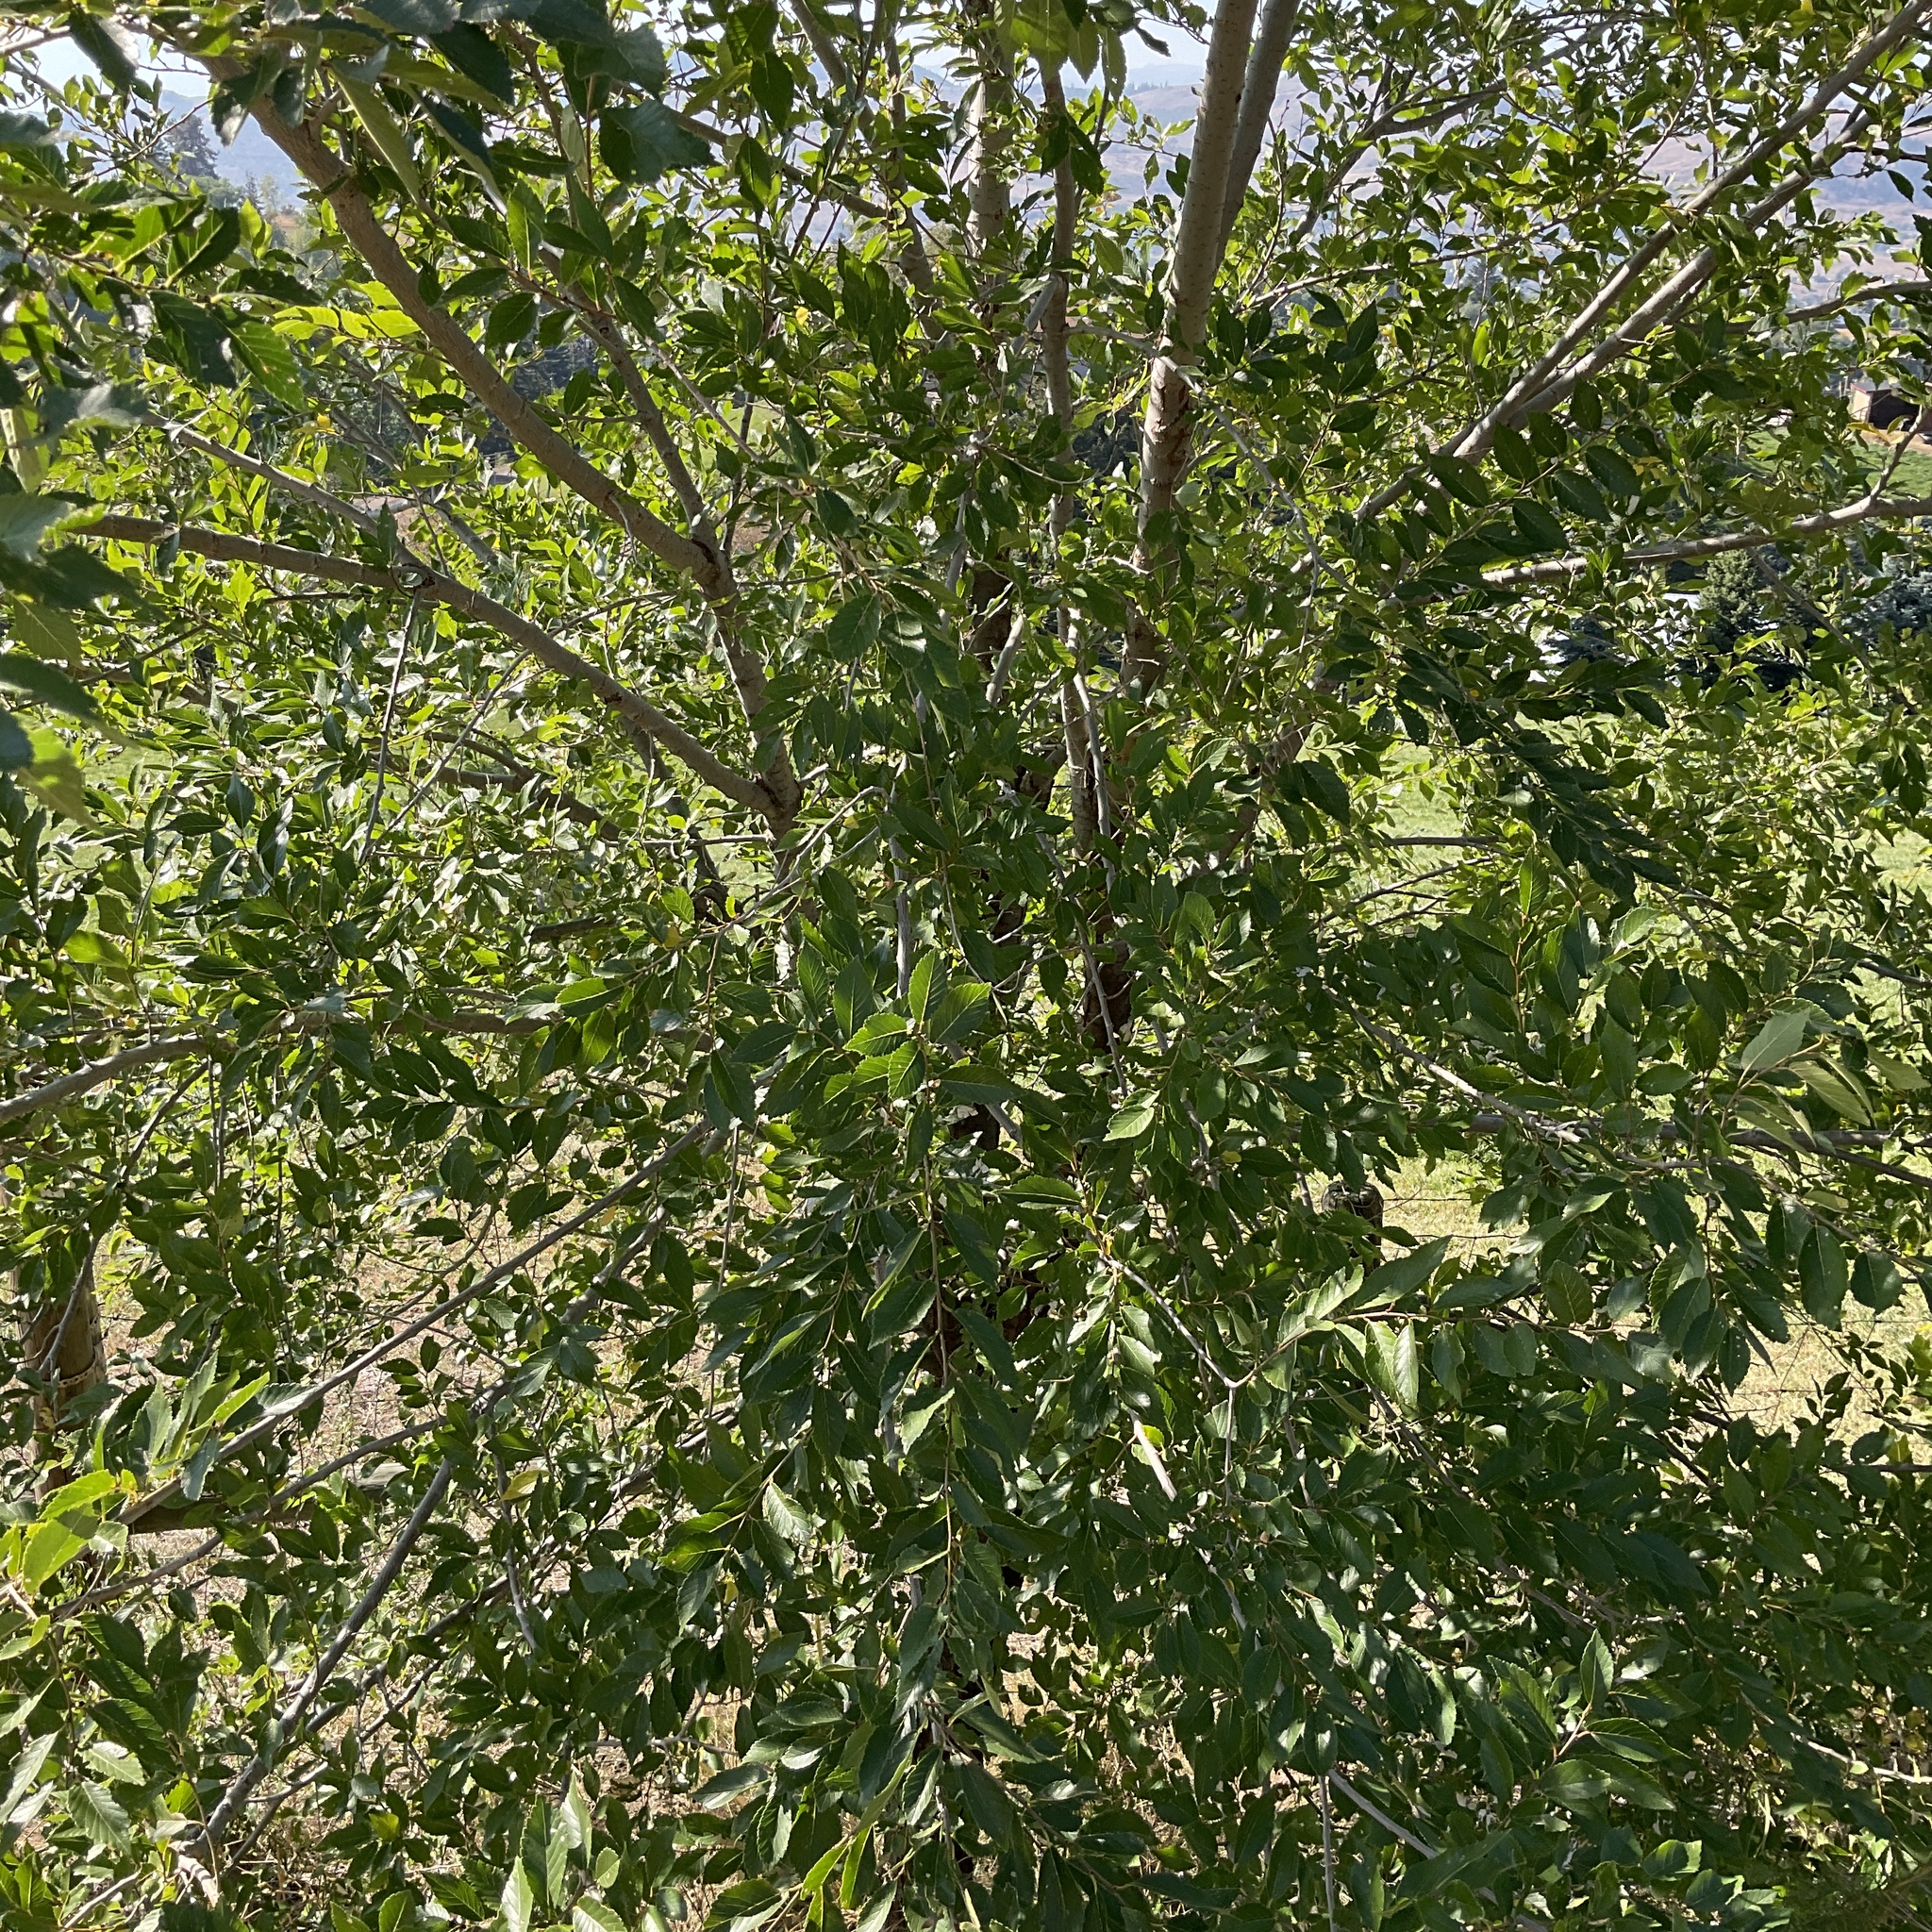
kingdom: Plantae
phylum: Tracheophyta
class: Magnoliopsida
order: Rosales
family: Ulmaceae
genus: Ulmus
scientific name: Ulmus pumila
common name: Siberian elm
